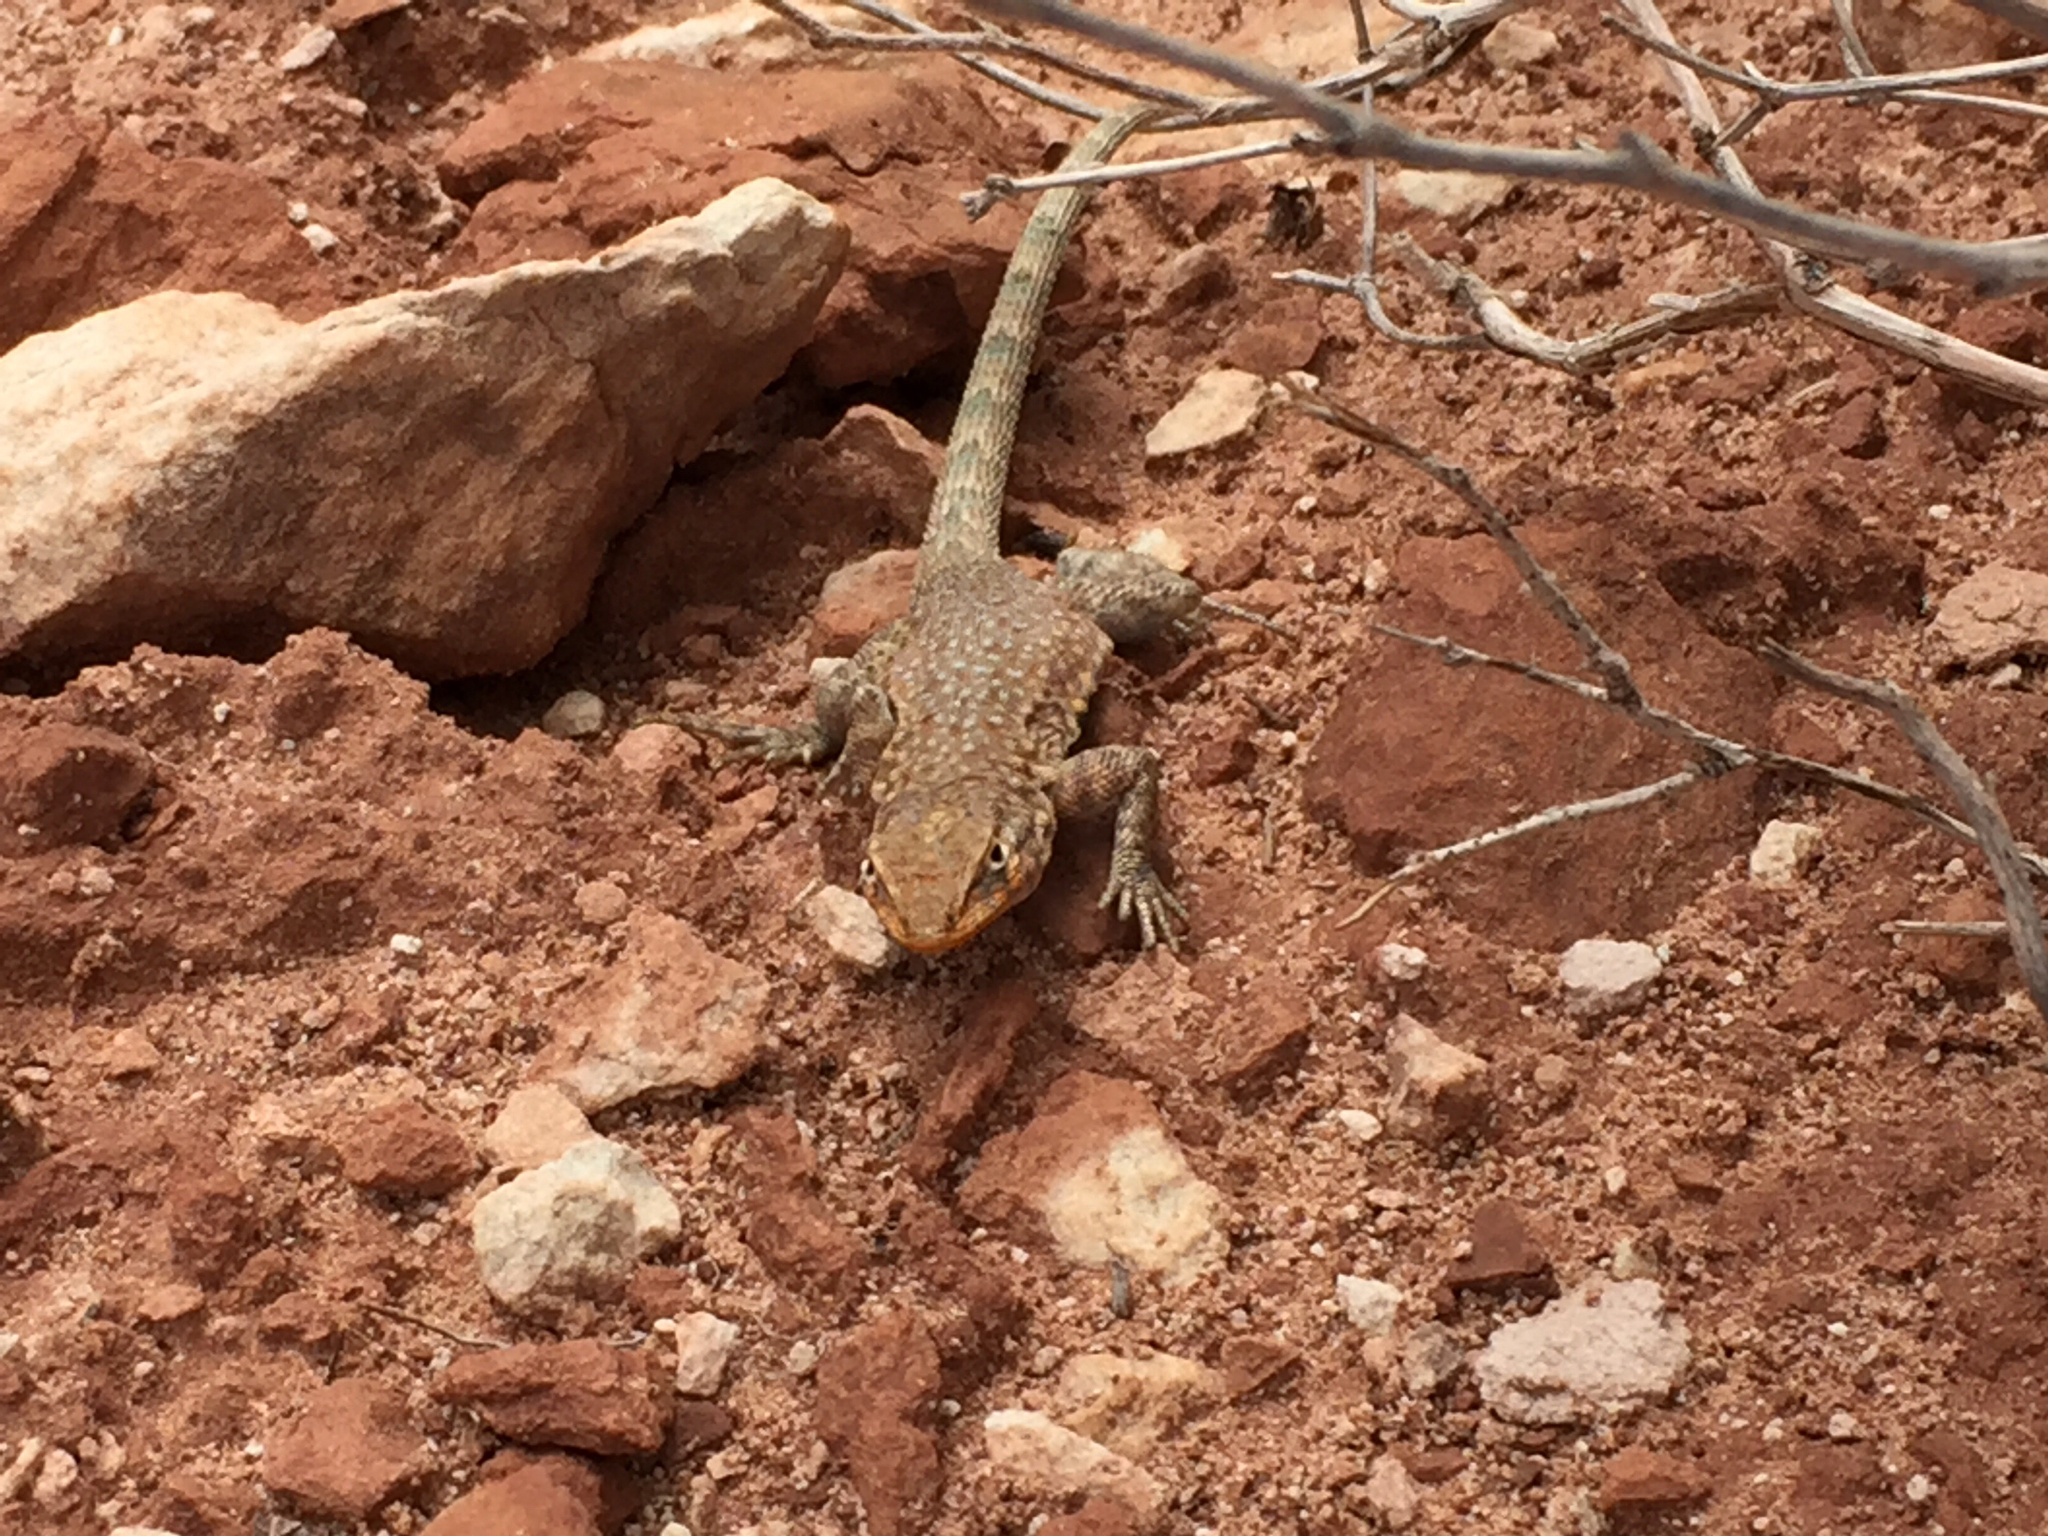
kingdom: Animalia
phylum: Chordata
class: Squamata
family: Phrynosomatidae
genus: Uta
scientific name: Uta stansburiana
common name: Side-blotched lizard
